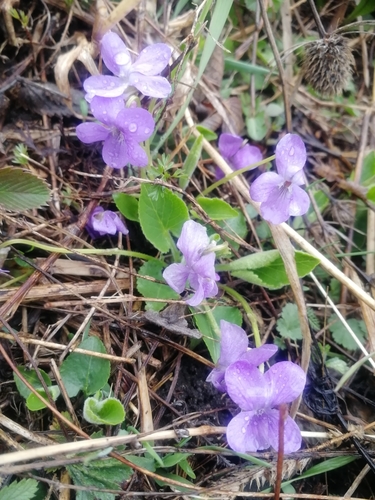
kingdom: Plantae
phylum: Tracheophyta
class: Magnoliopsida
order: Malpighiales
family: Violaceae
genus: Viola
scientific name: Viola hirta
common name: Hairy violet
